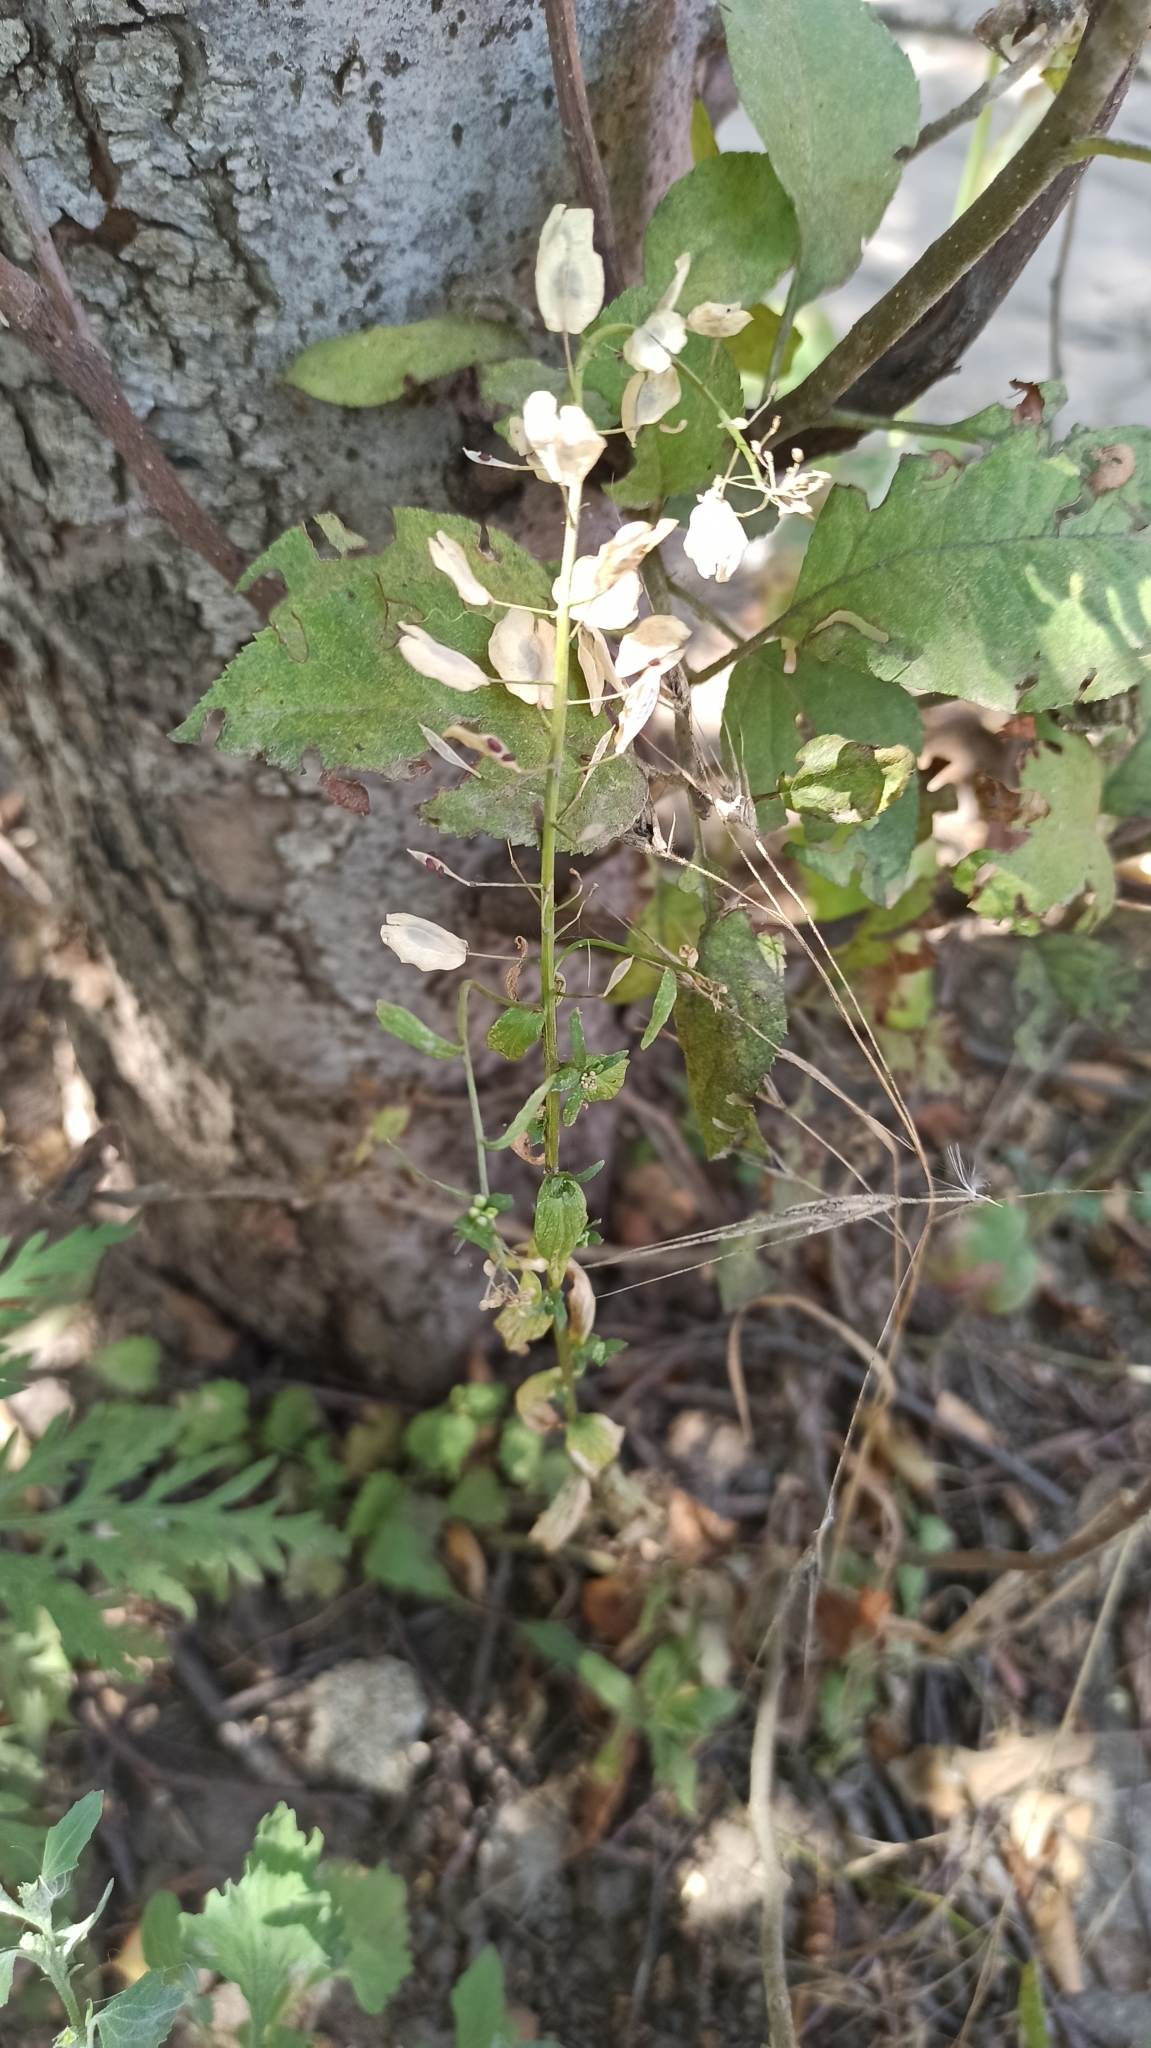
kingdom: Plantae
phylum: Tracheophyta
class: Magnoliopsida
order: Brassicales
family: Brassicaceae
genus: Thlaspi
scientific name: Thlaspi arvense
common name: Field pennycress
